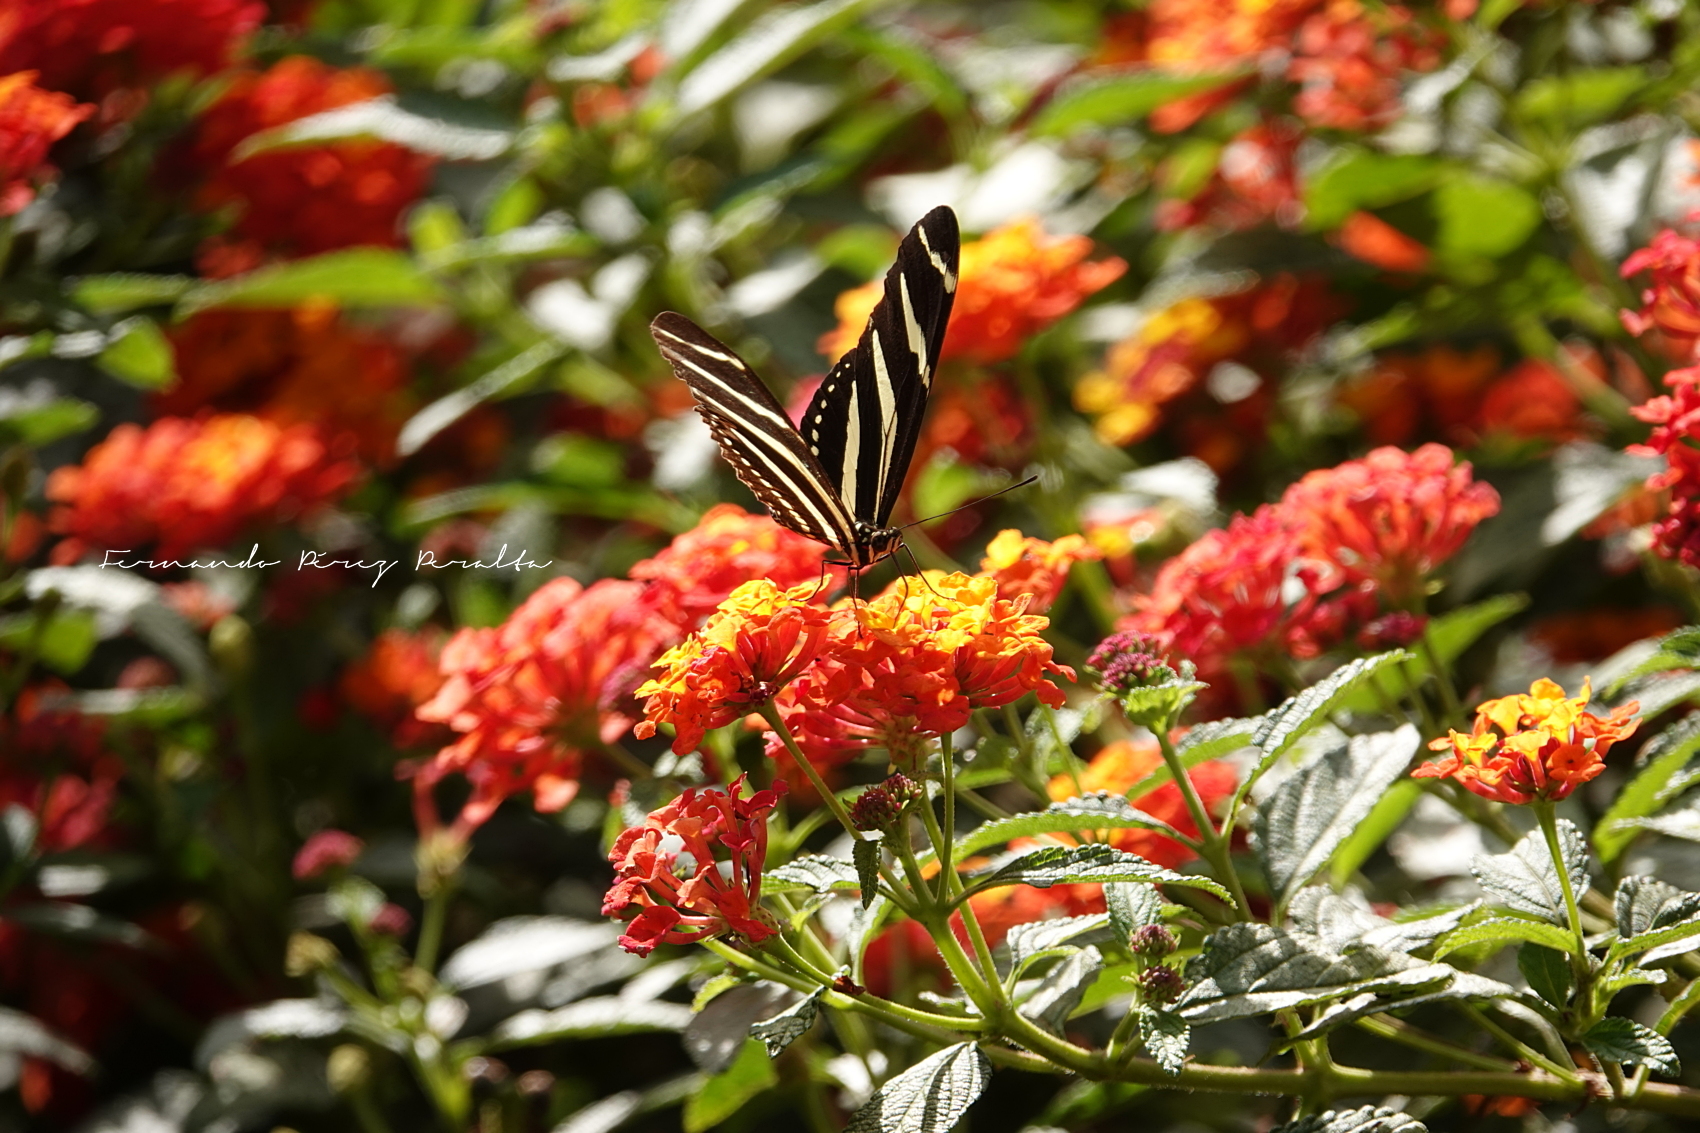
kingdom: Animalia
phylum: Arthropoda
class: Insecta
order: Lepidoptera
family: Nymphalidae
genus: Heliconius
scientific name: Heliconius charithonia
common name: Zebra long wing
